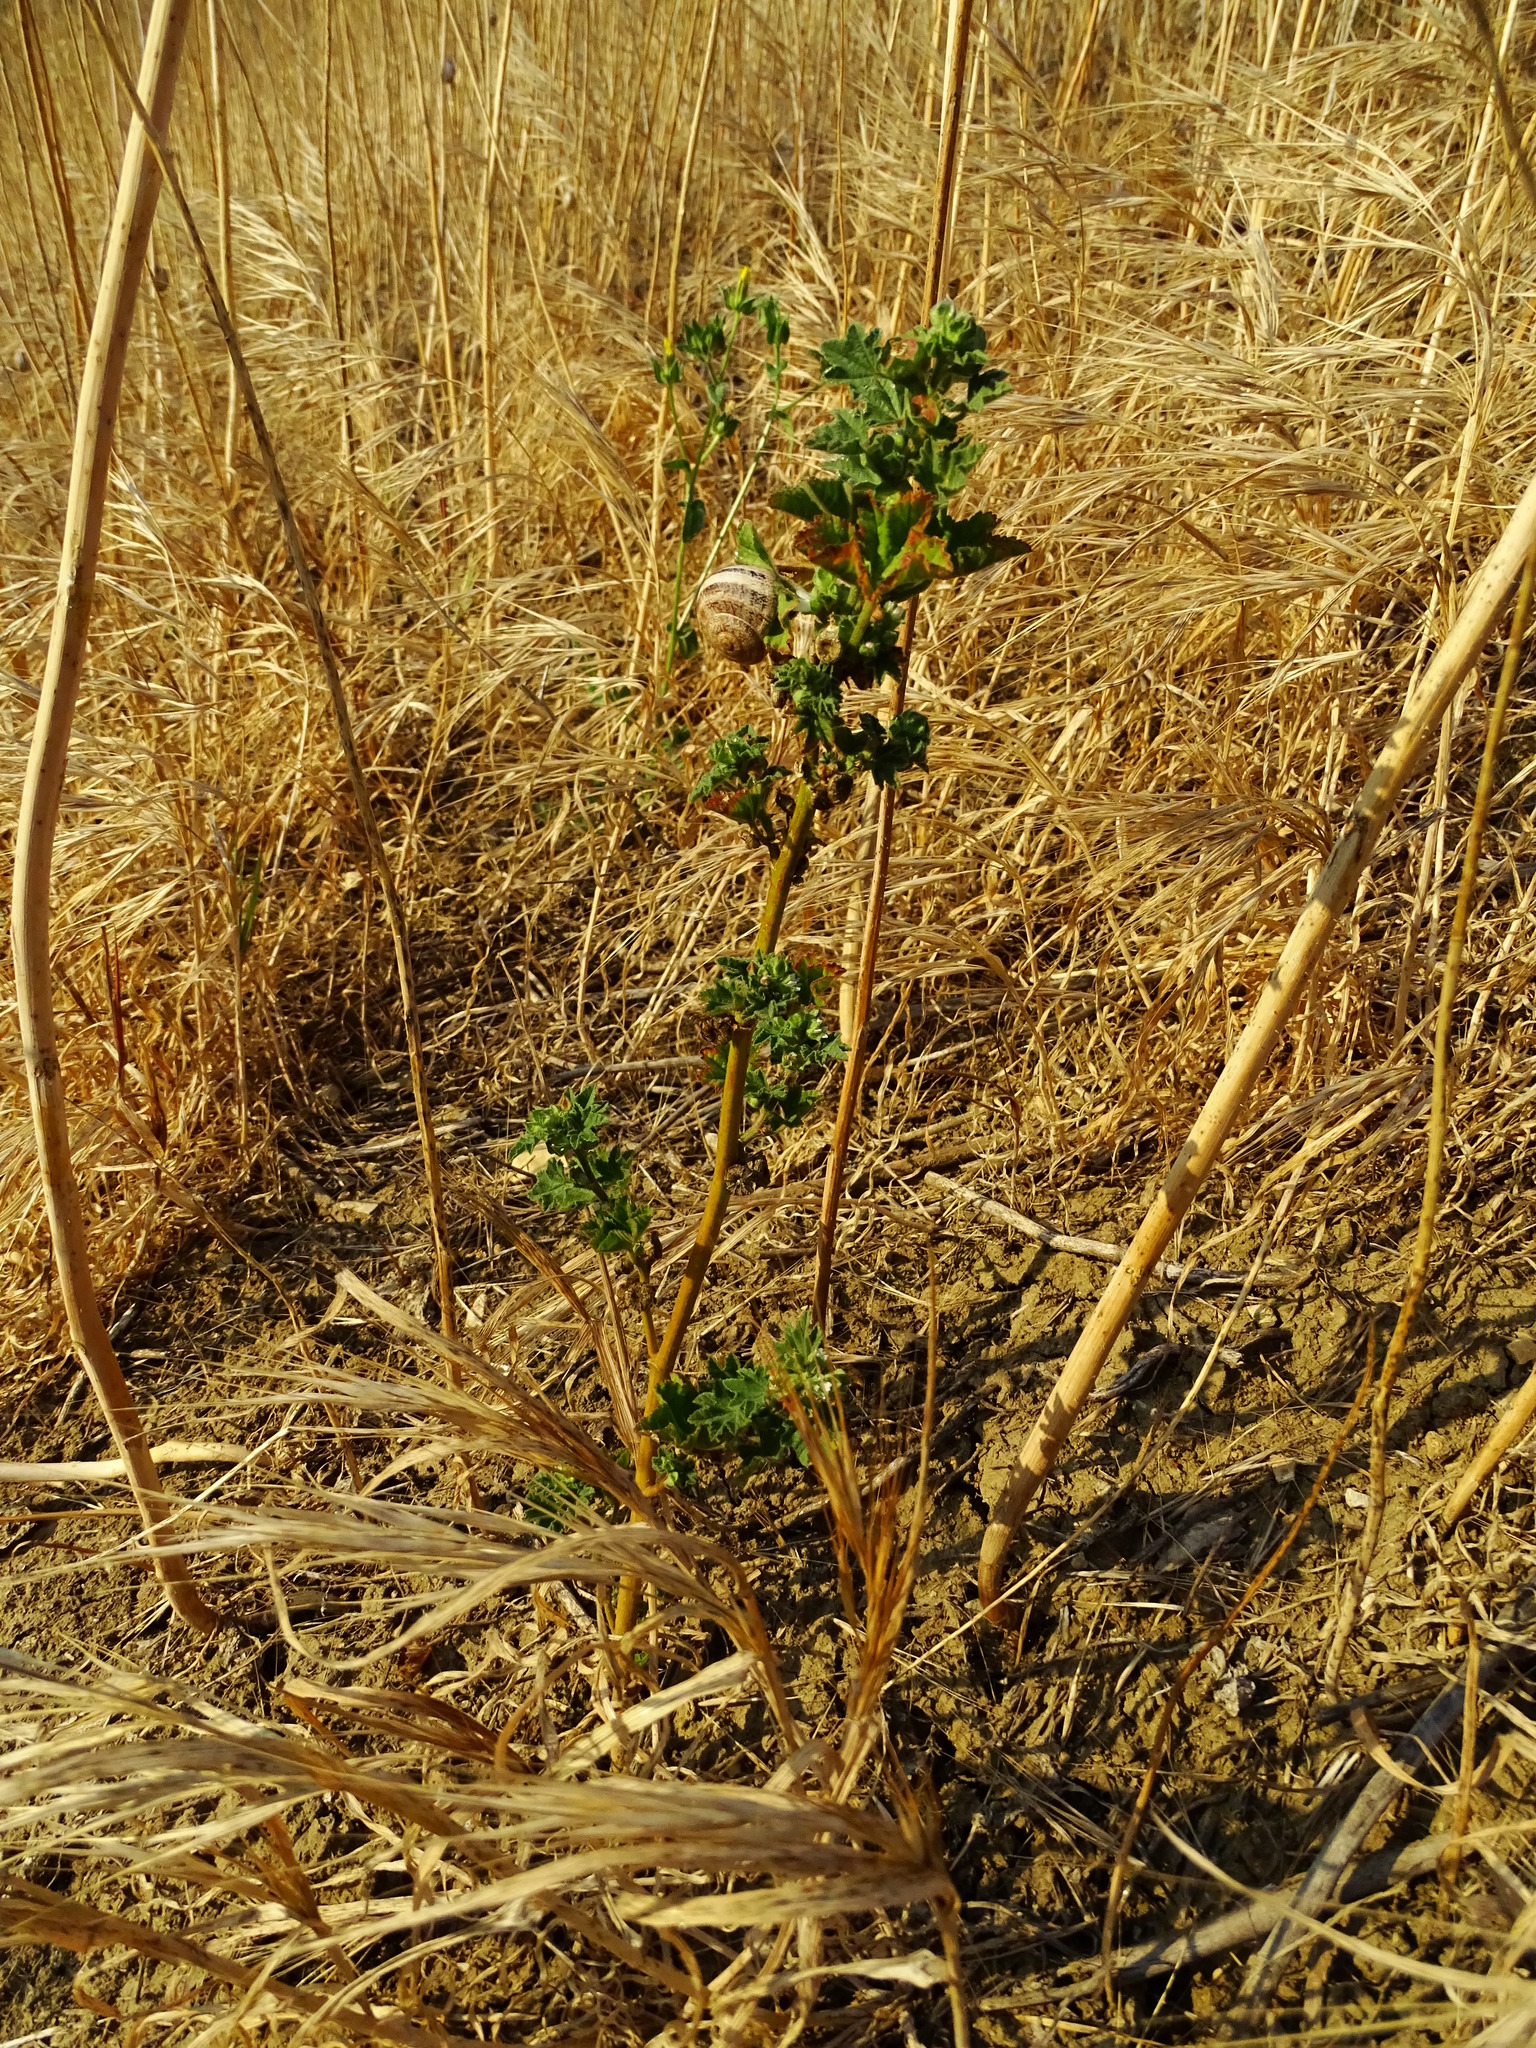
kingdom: Plantae
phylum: Tracheophyta
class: Magnoliopsida
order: Malvales
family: Malvaceae
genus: Malva
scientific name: Malva parviflora
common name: Least mallow
